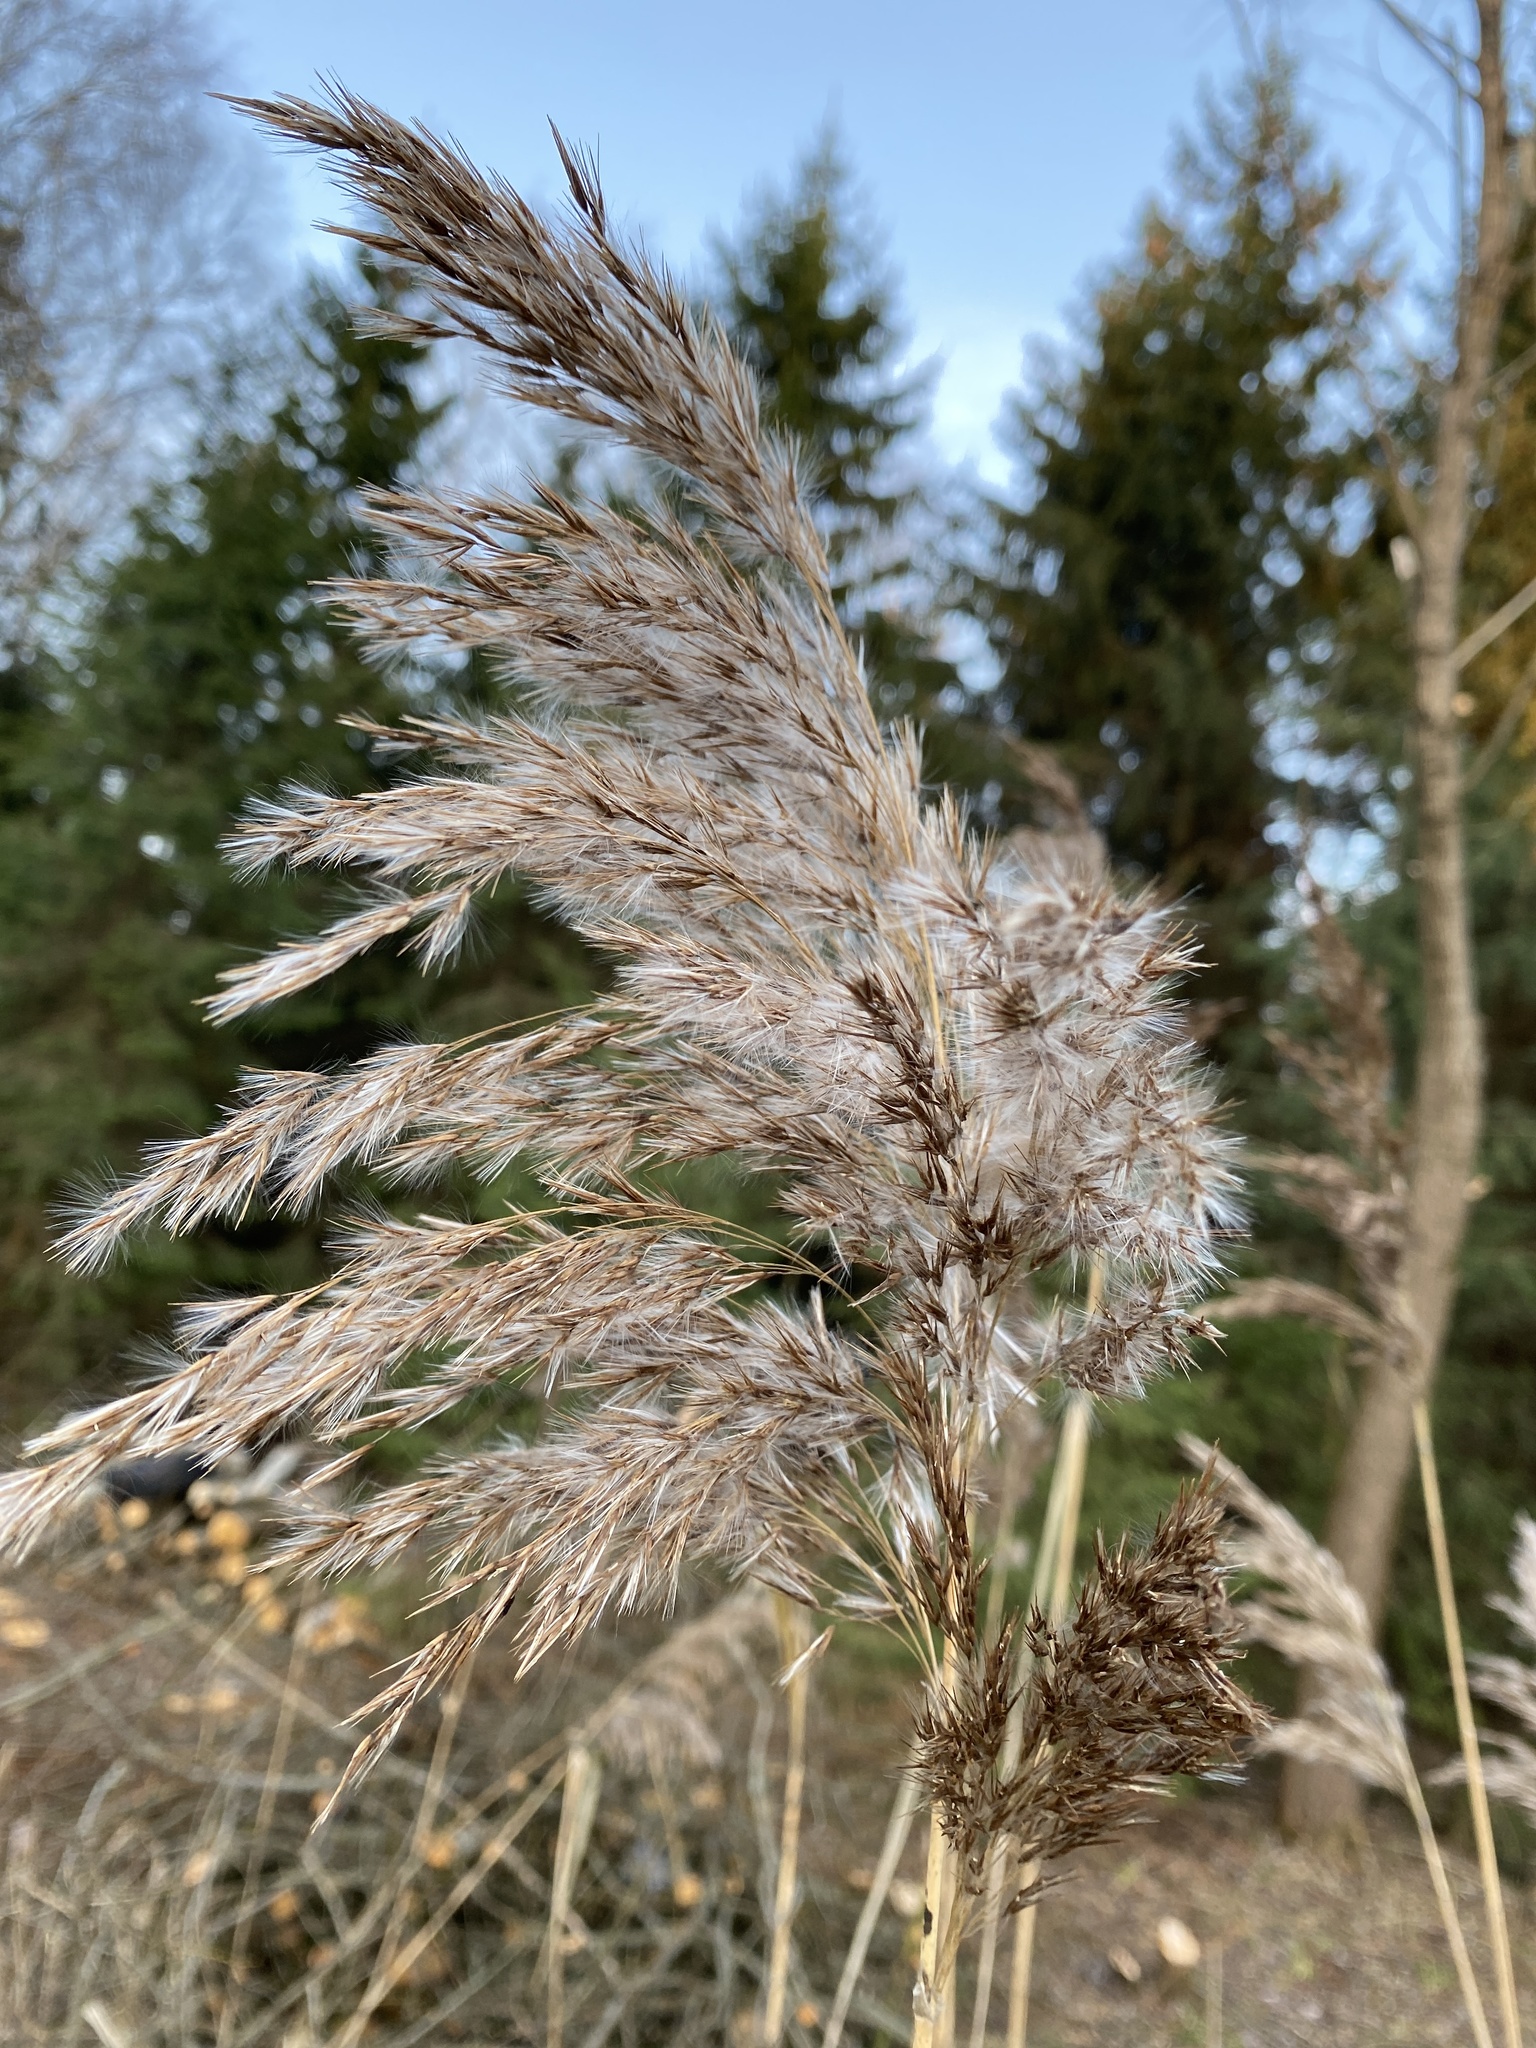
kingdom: Plantae
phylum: Tracheophyta
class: Liliopsida
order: Poales
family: Poaceae
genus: Phragmites
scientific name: Phragmites australis
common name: Common reed
